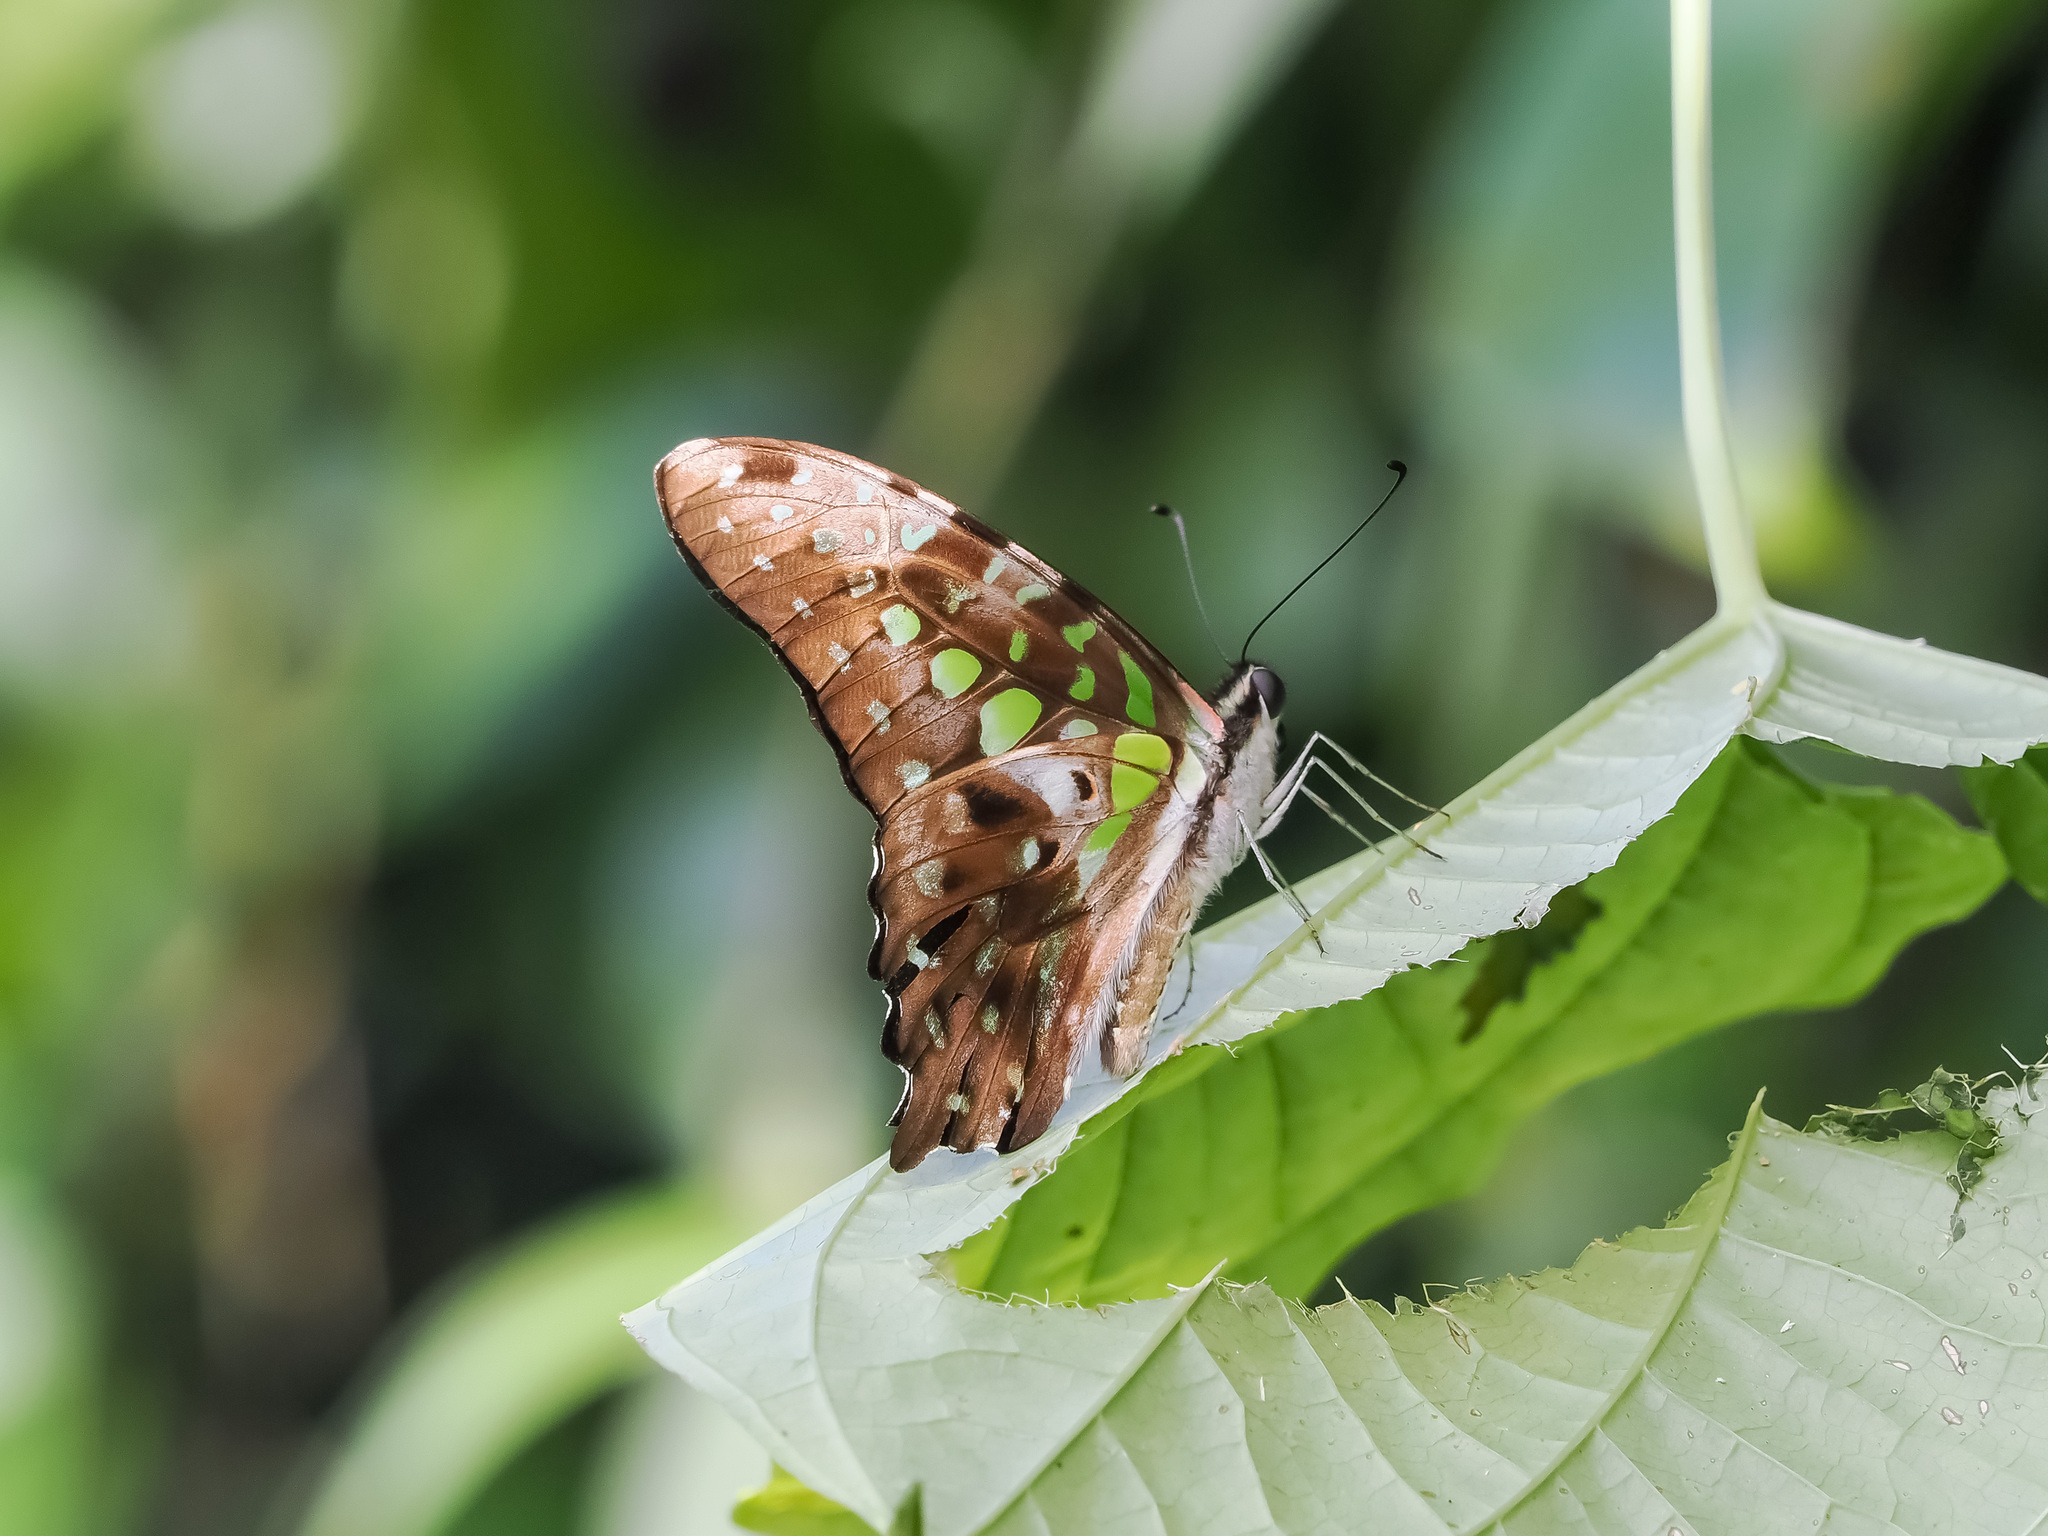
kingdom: Animalia
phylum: Arthropoda
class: Insecta
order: Lepidoptera
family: Papilionidae
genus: Graphium
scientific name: Graphium agamemnon
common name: Tailed jay
